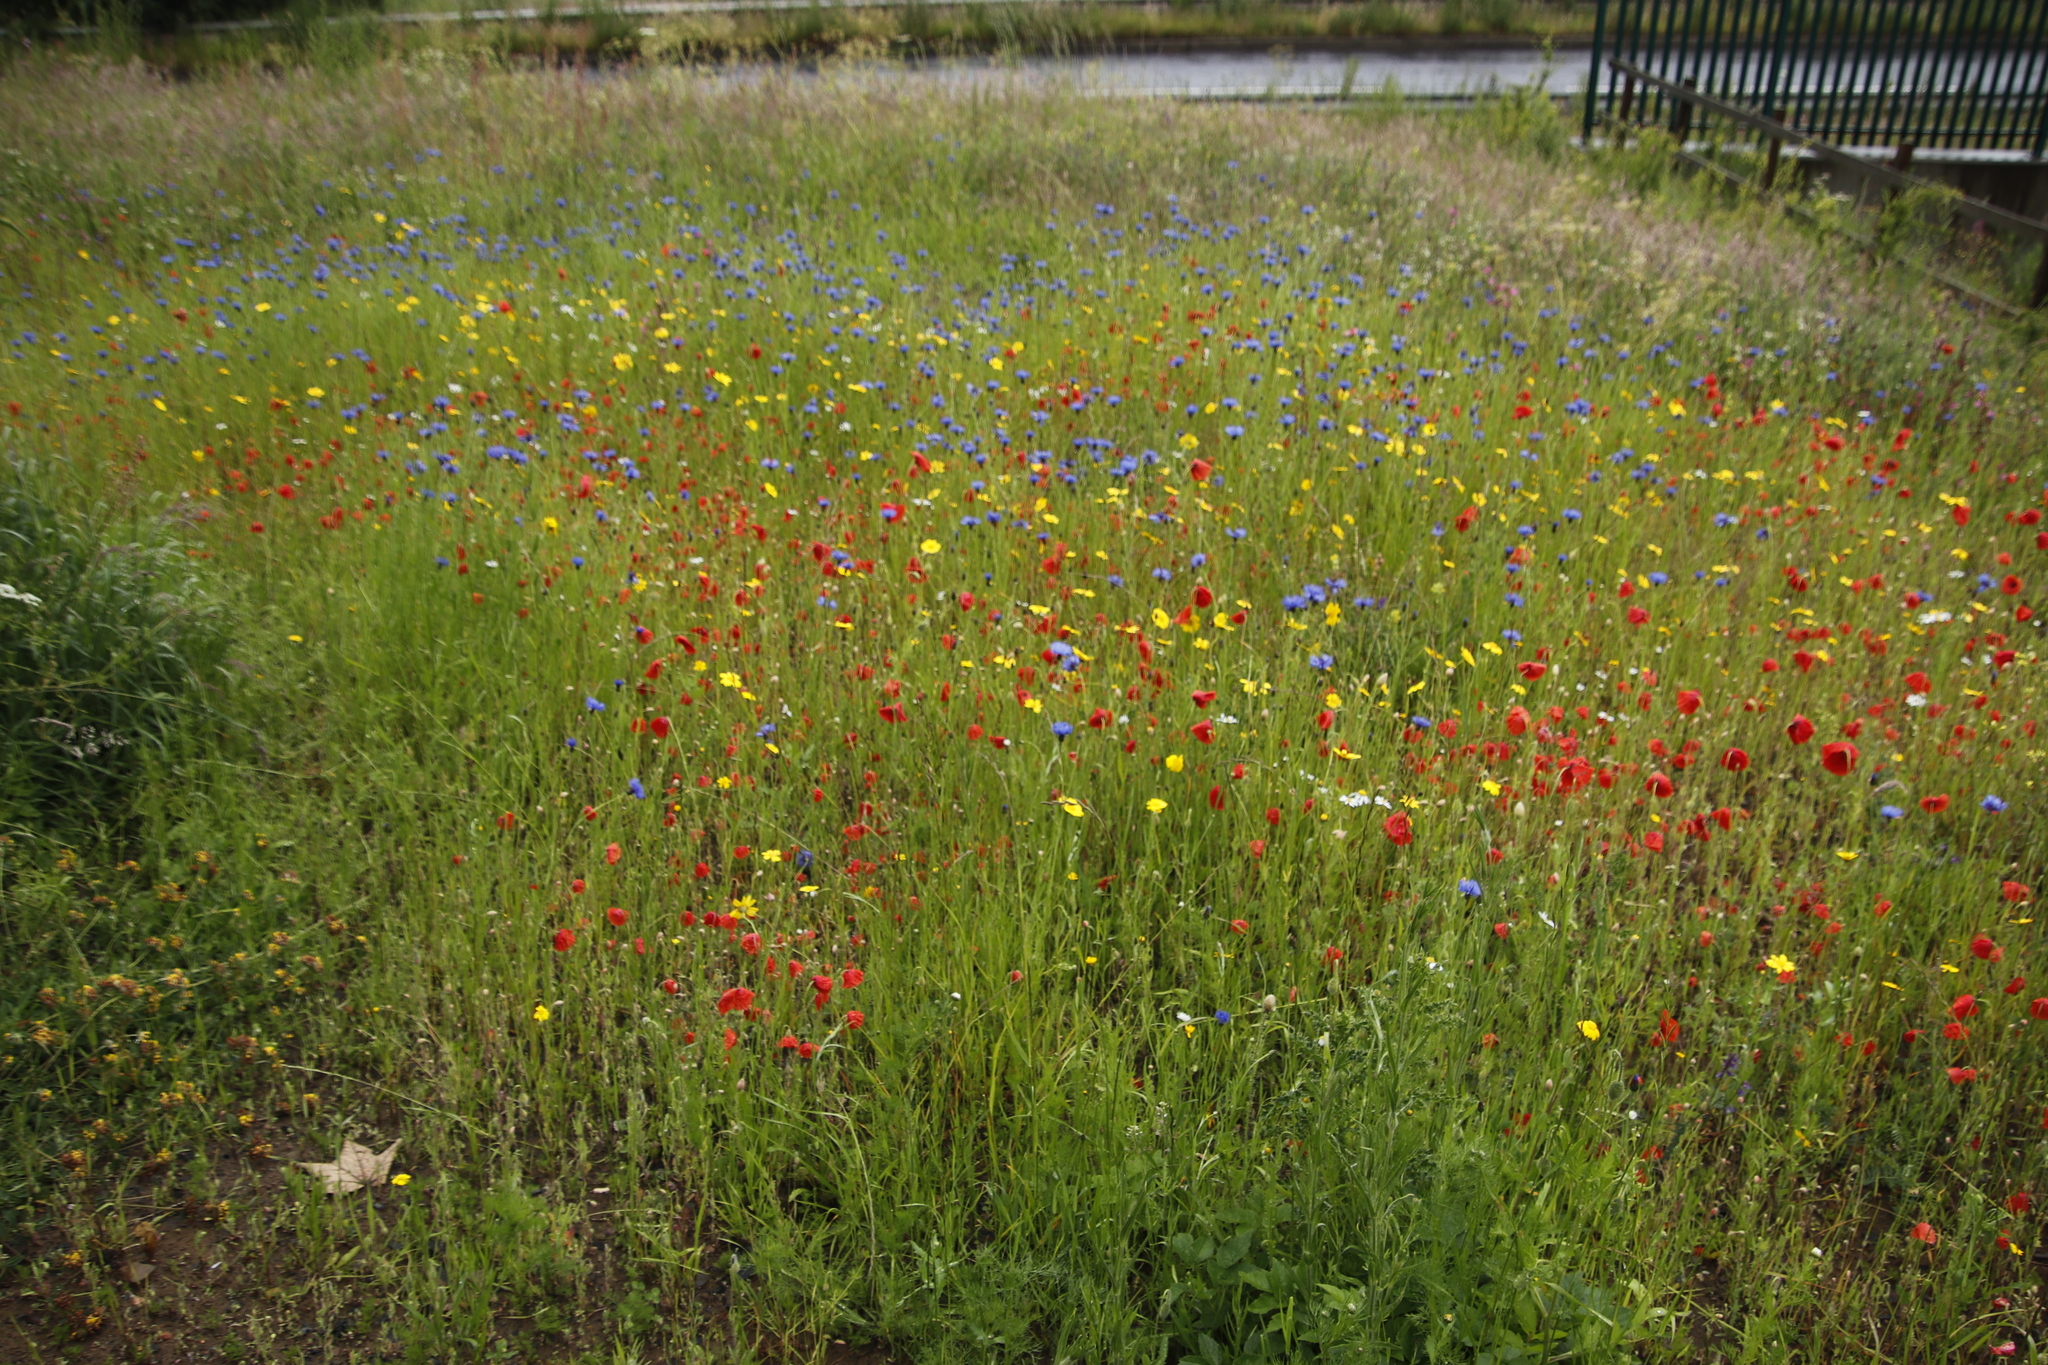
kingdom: Plantae
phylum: Tracheophyta
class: Magnoliopsida
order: Asterales
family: Asteraceae
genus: Centaurea
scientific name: Centaurea cyanus
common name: Cornflower
